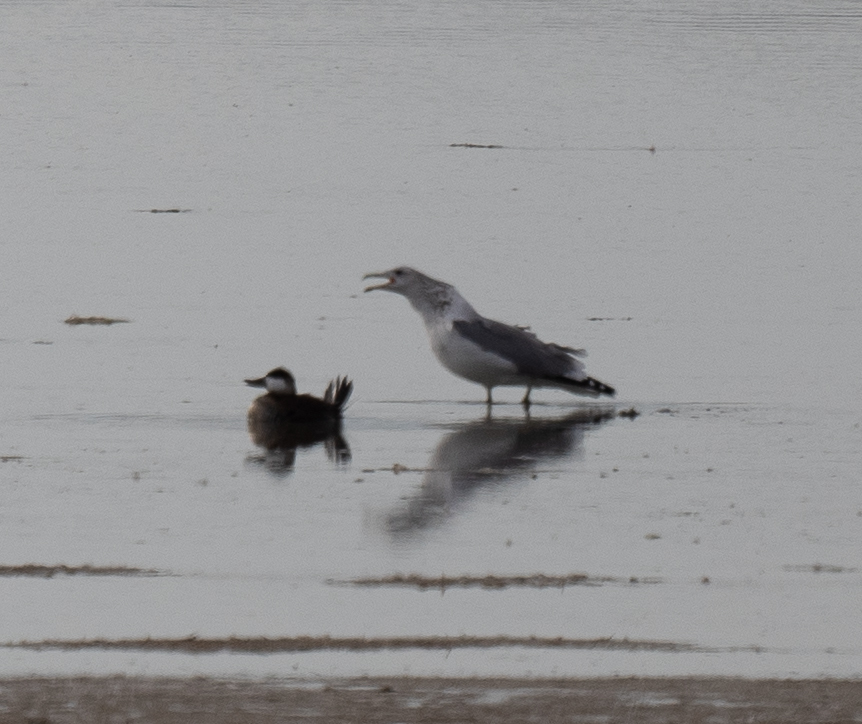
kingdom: Animalia
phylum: Chordata
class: Aves
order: Anseriformes
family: Anatidae
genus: Oxyura
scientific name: Oxyura jamaicensis
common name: Ruddy duck
